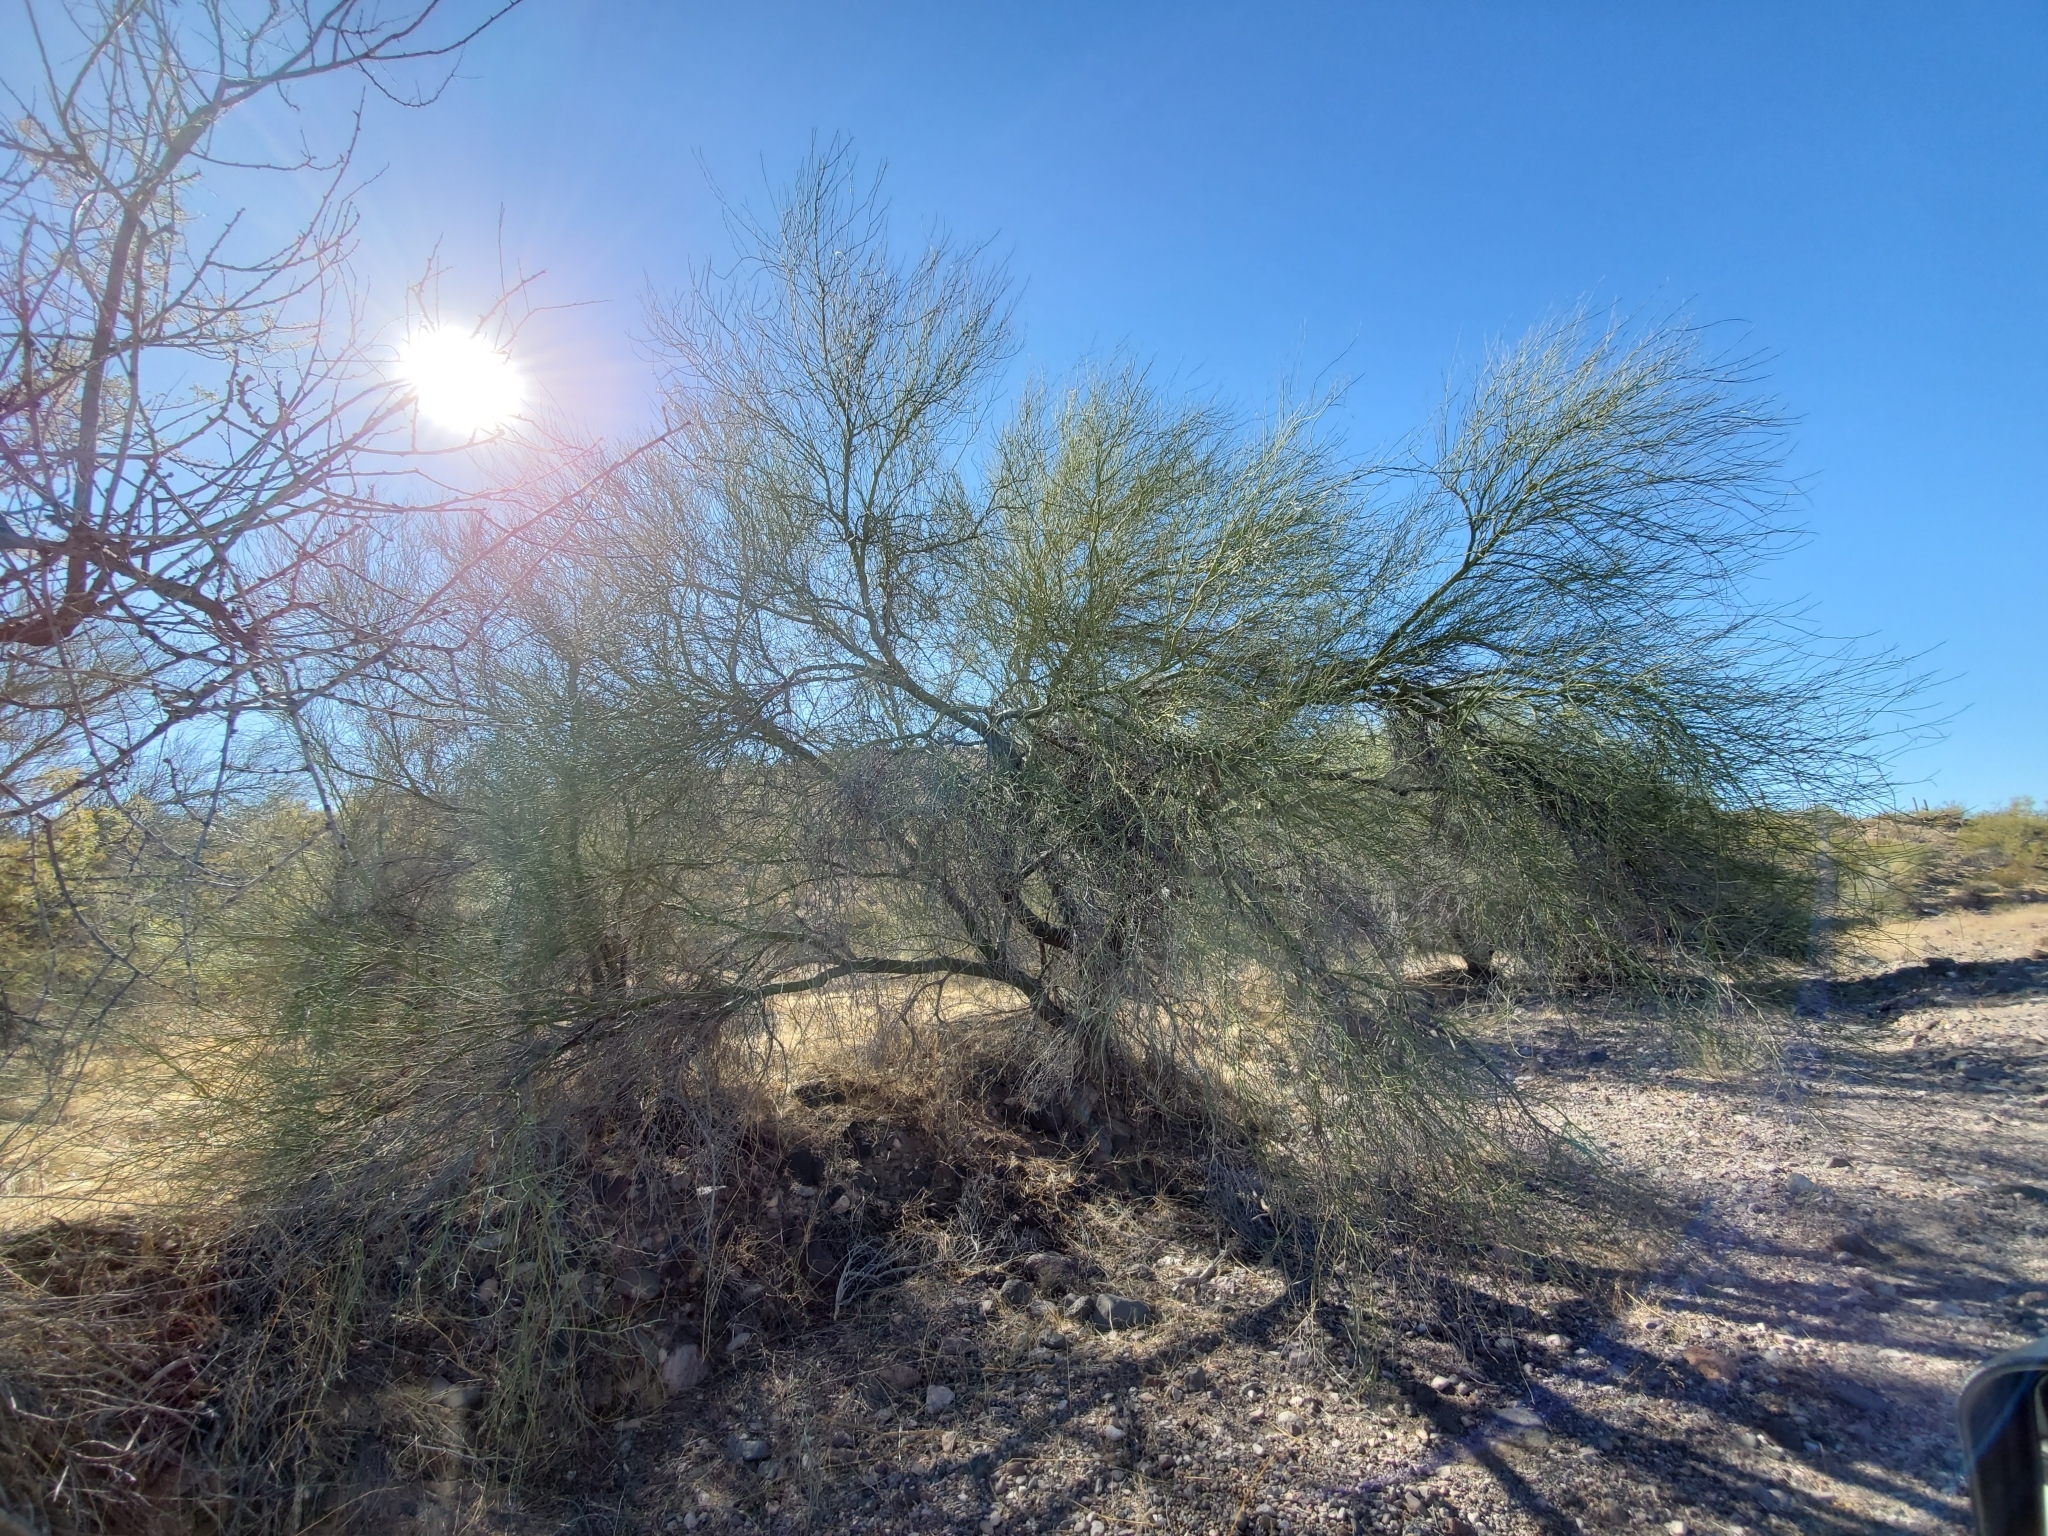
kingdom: Plantae
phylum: Tracheophyta
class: Magnoliopsida
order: Fabales
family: Fabaceae
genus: Parkinsonia
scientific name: Parkinsonia florida
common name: Blue paloverde
